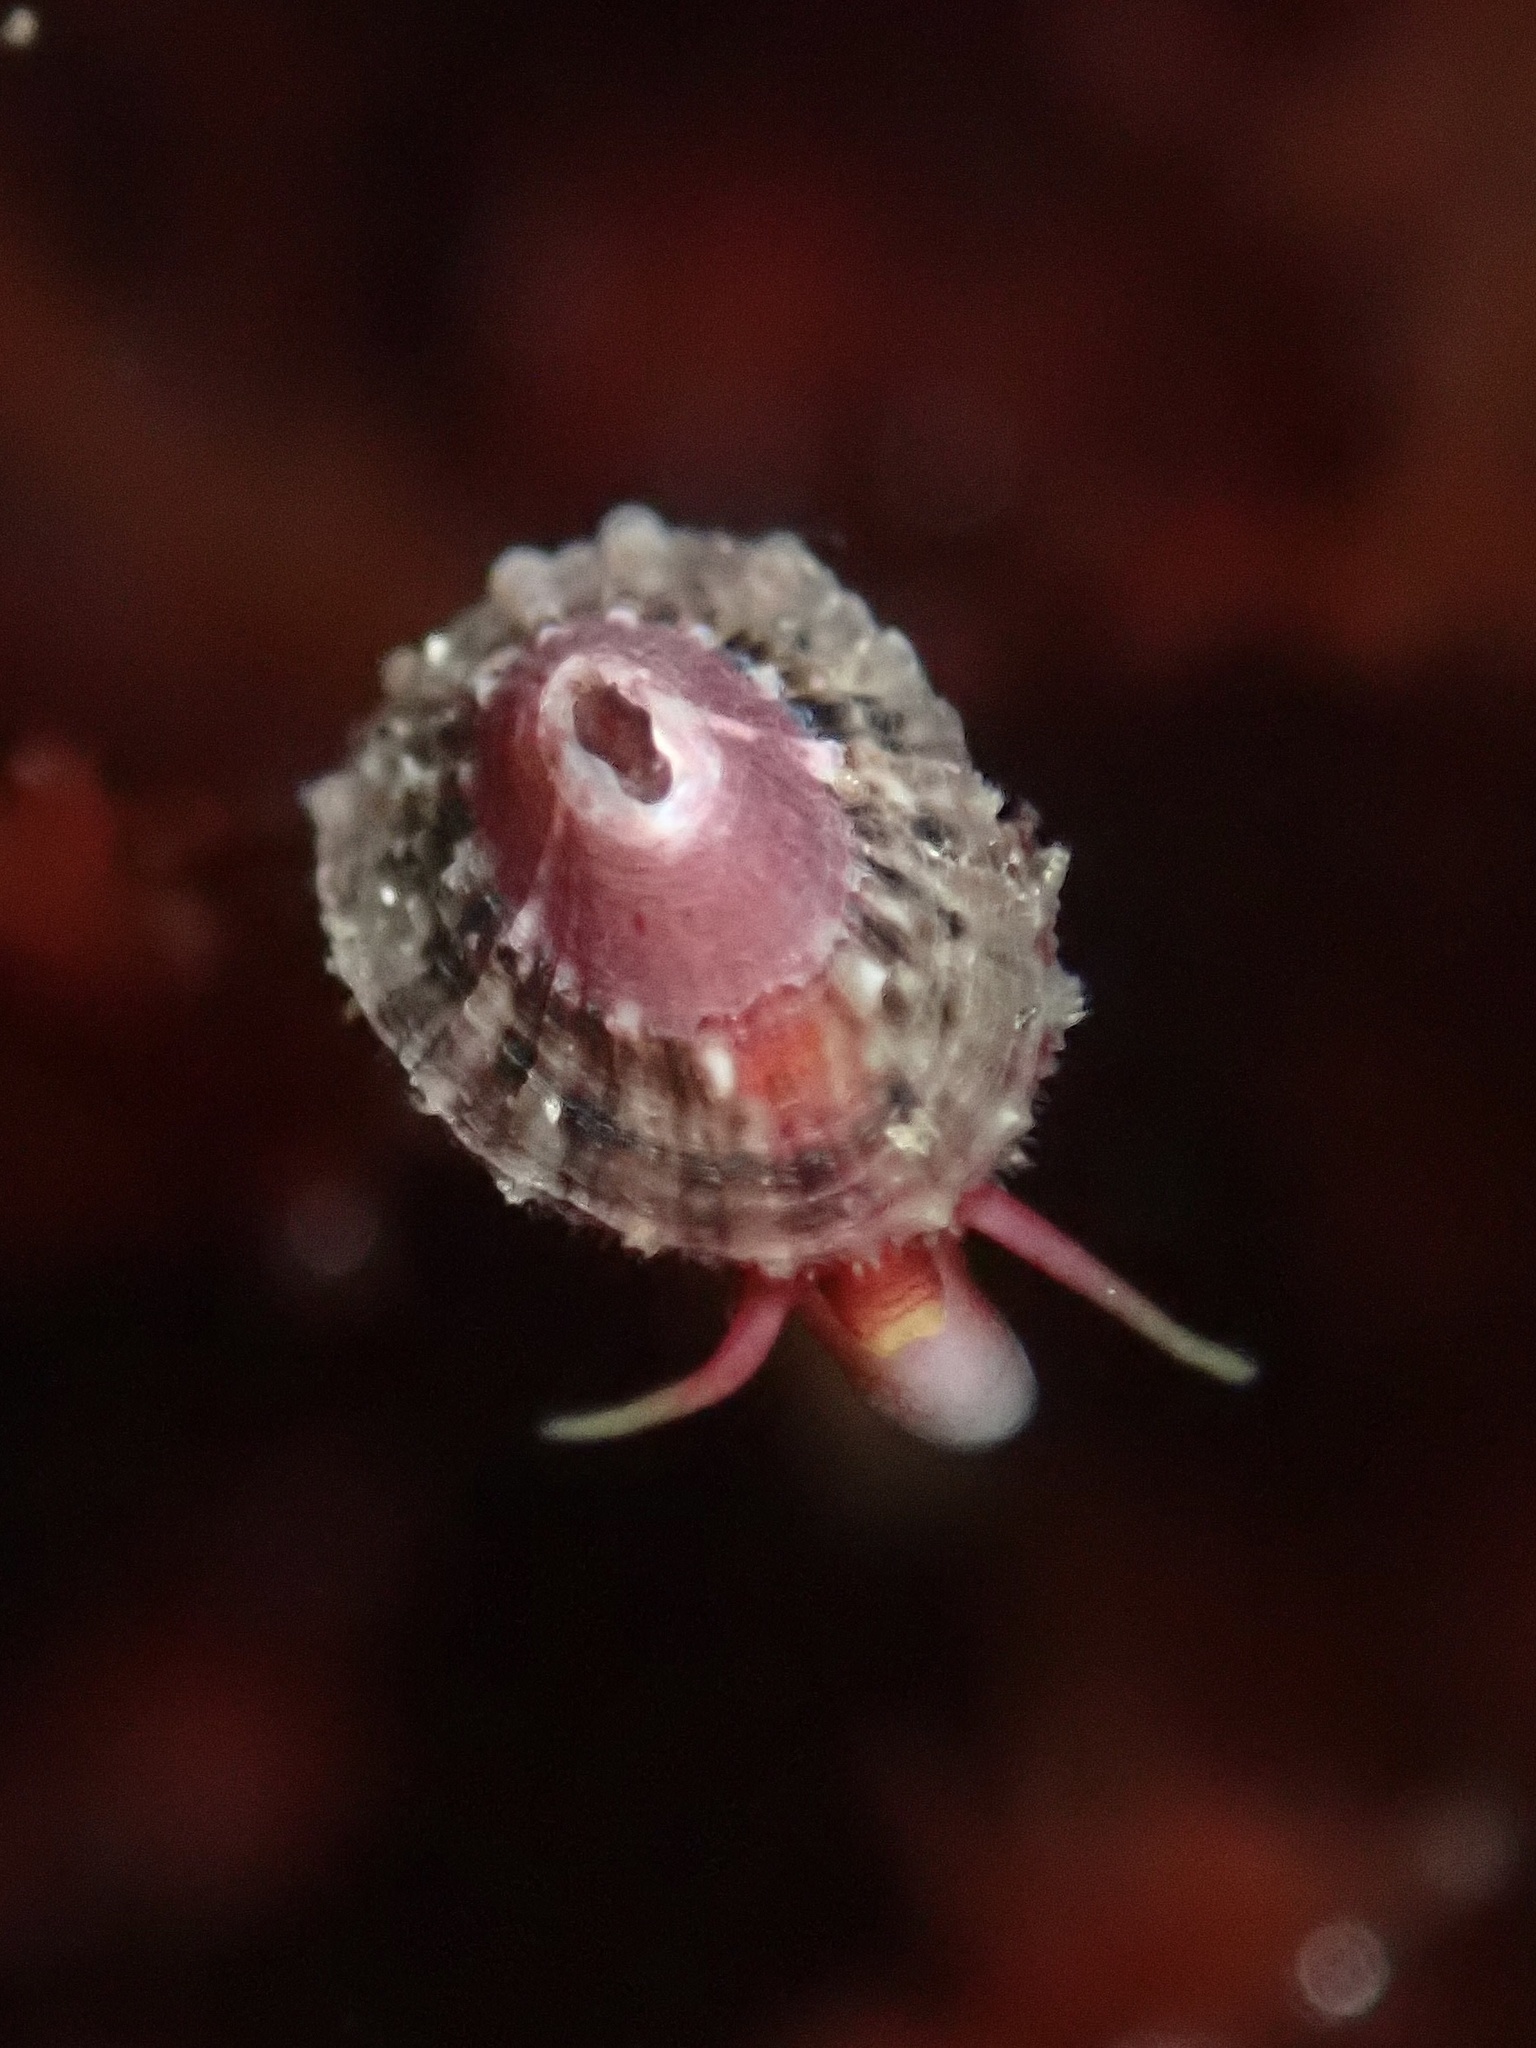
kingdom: Animalia
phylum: Mollusca
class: Gastropoda
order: Lepetellida
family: Fissurellidae
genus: Fissurella
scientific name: Fissurella volcano
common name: Volcano keyhole limpet
